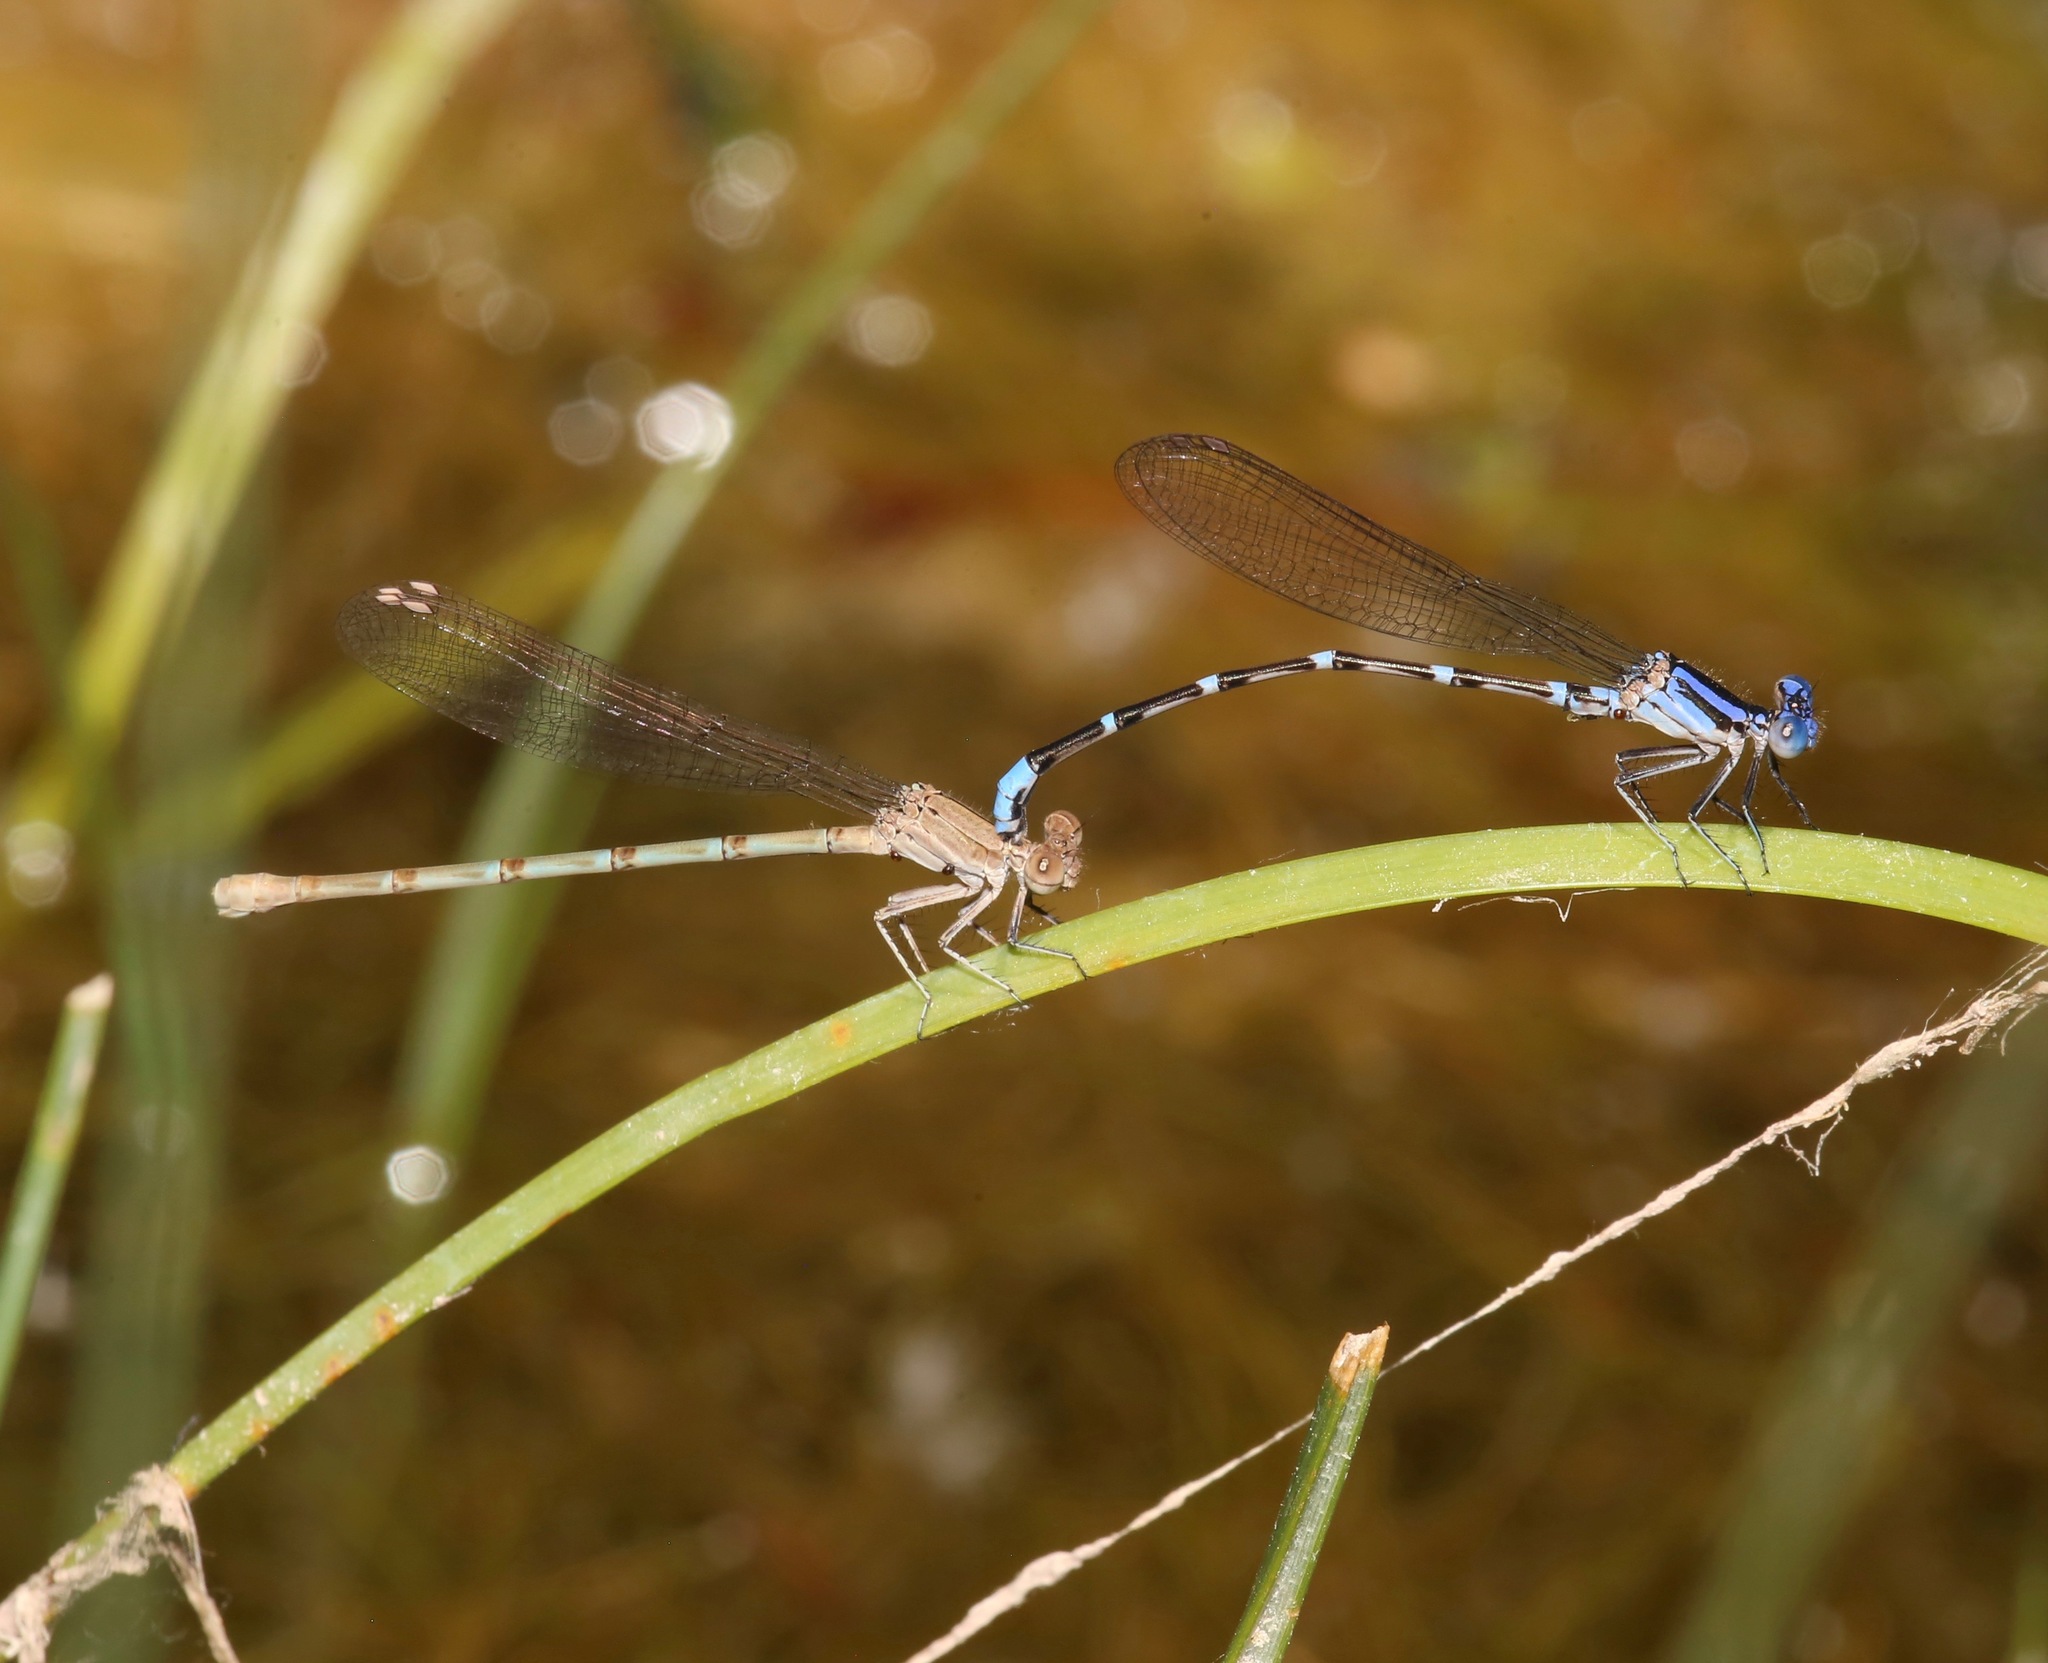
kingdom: Animalia
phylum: Arthropoda
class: Insecta
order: Odonata
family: Coenagrionidae
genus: Argia
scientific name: Argia sedula
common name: Blue-ringed dancer
